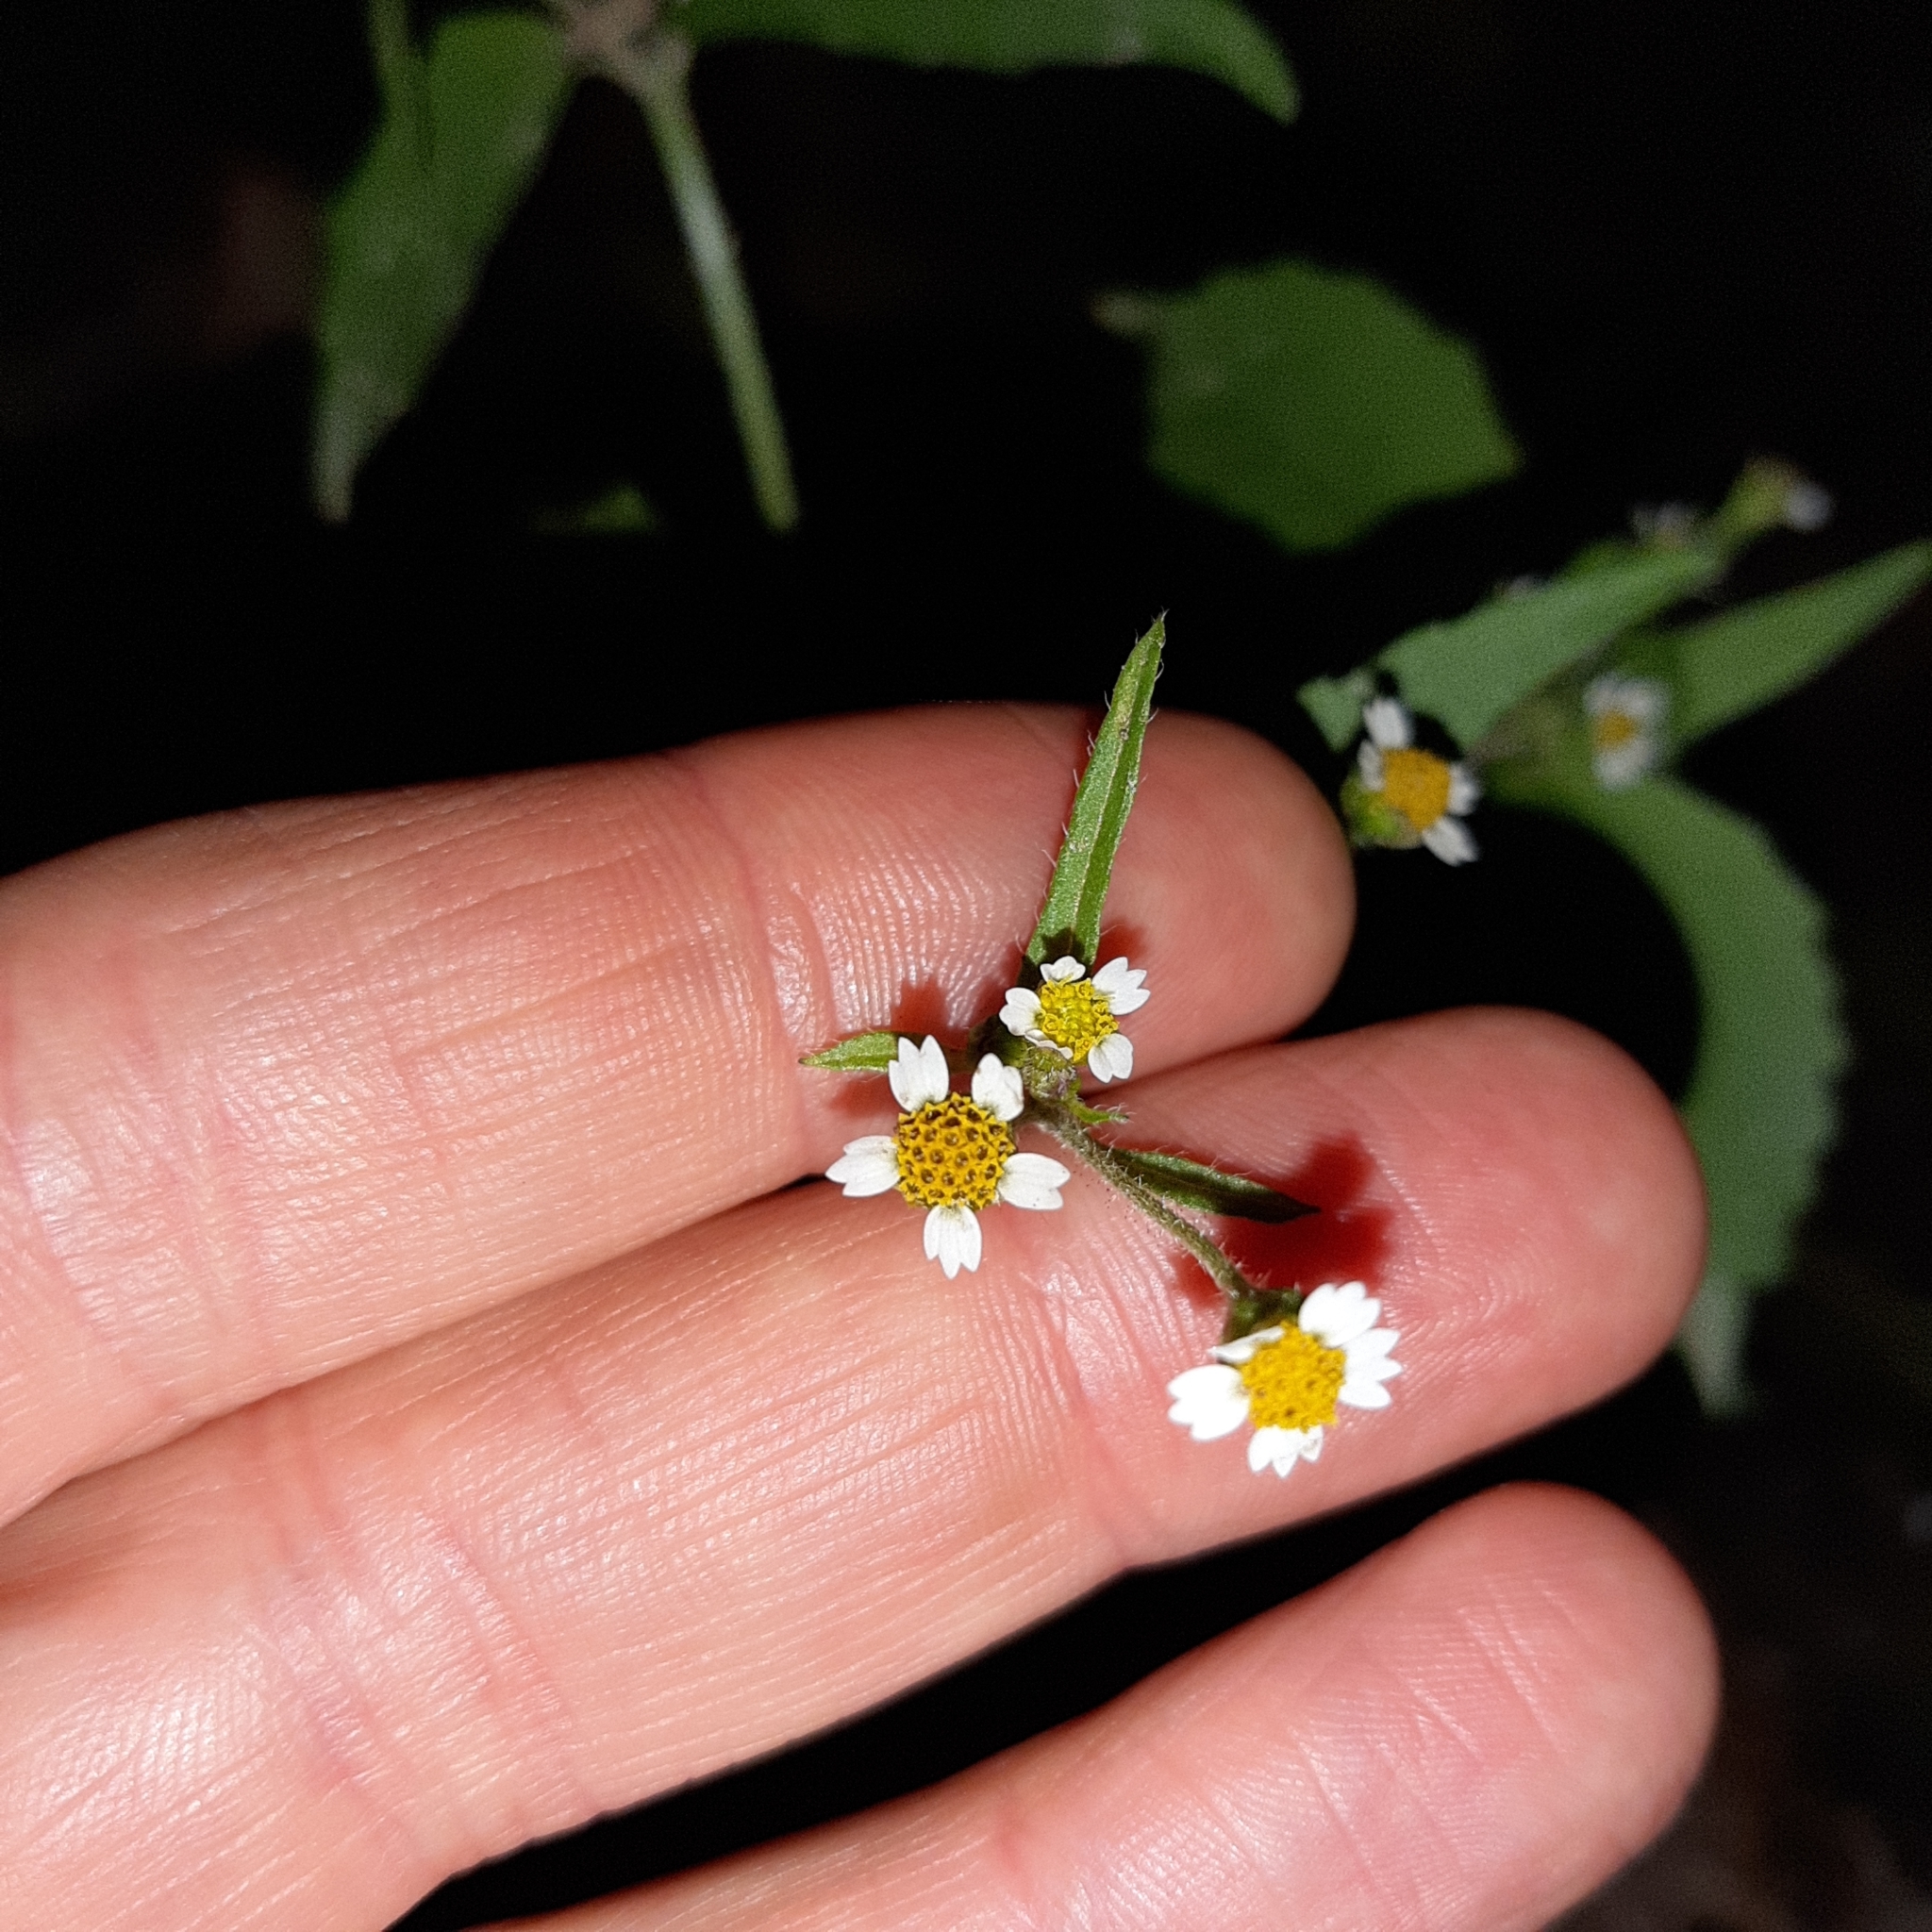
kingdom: Plantae
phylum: Tracheophyta
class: Magnoliopsida
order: Asterales
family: Asteraceae
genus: Galinsoga
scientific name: Galinsoga quadriradiata
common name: Shaggy soldier
